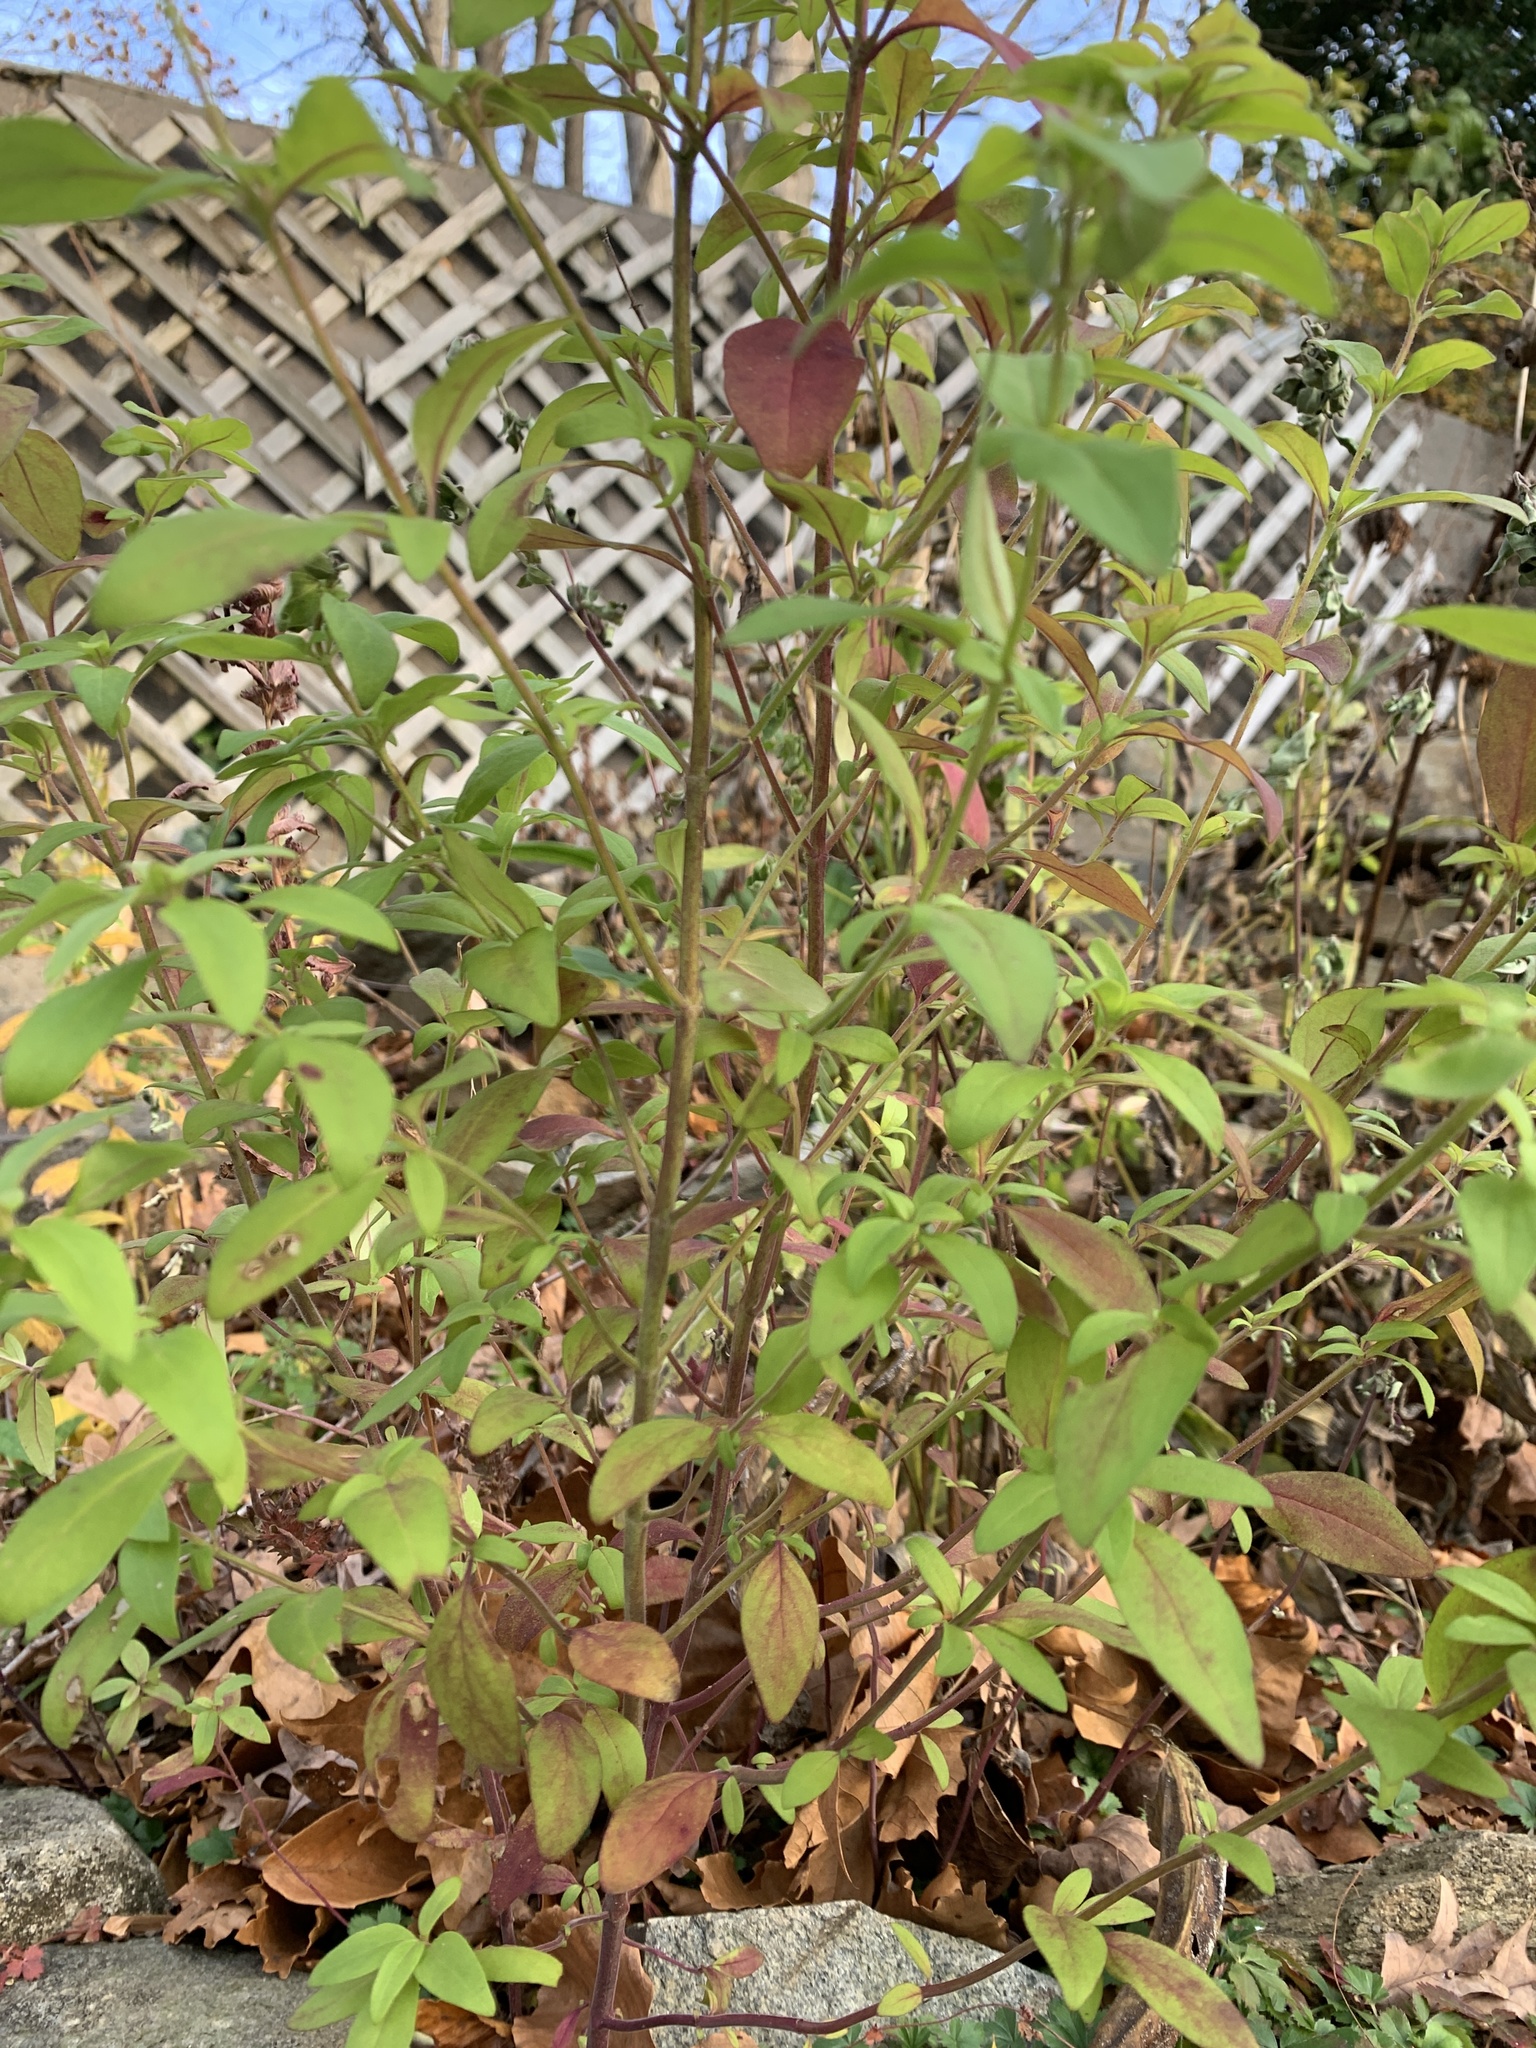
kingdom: Plantae
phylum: Tracheophyta
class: Magnoliopsida
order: Lamiales
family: Lamiaceae
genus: Trichostema
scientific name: Trichostema dichotomum
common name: Bastard pennyroyal
